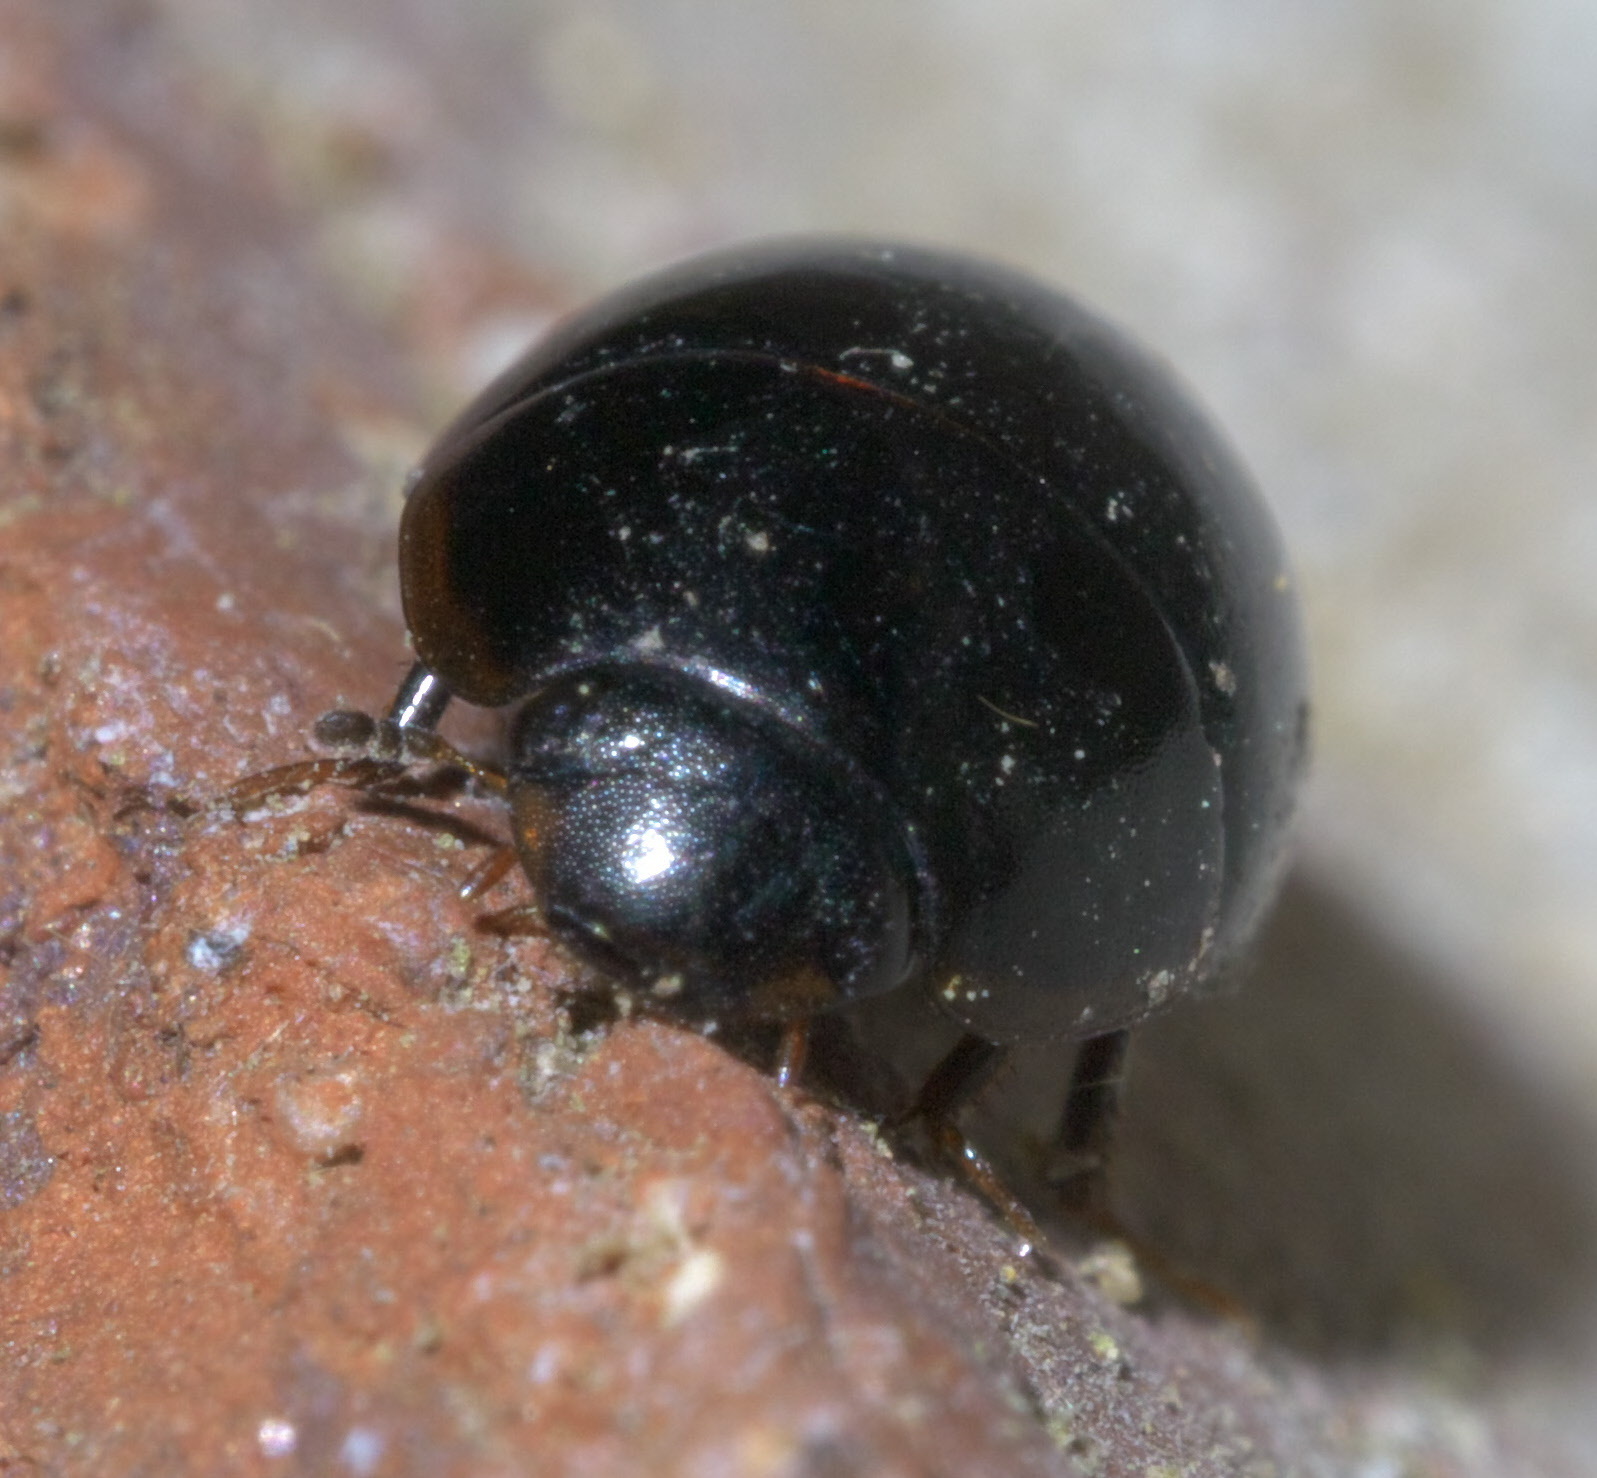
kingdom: Animalia
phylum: Arthropoda
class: Insecta
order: Coleoptera
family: Hydrophilidae
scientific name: Hydrophilidae
